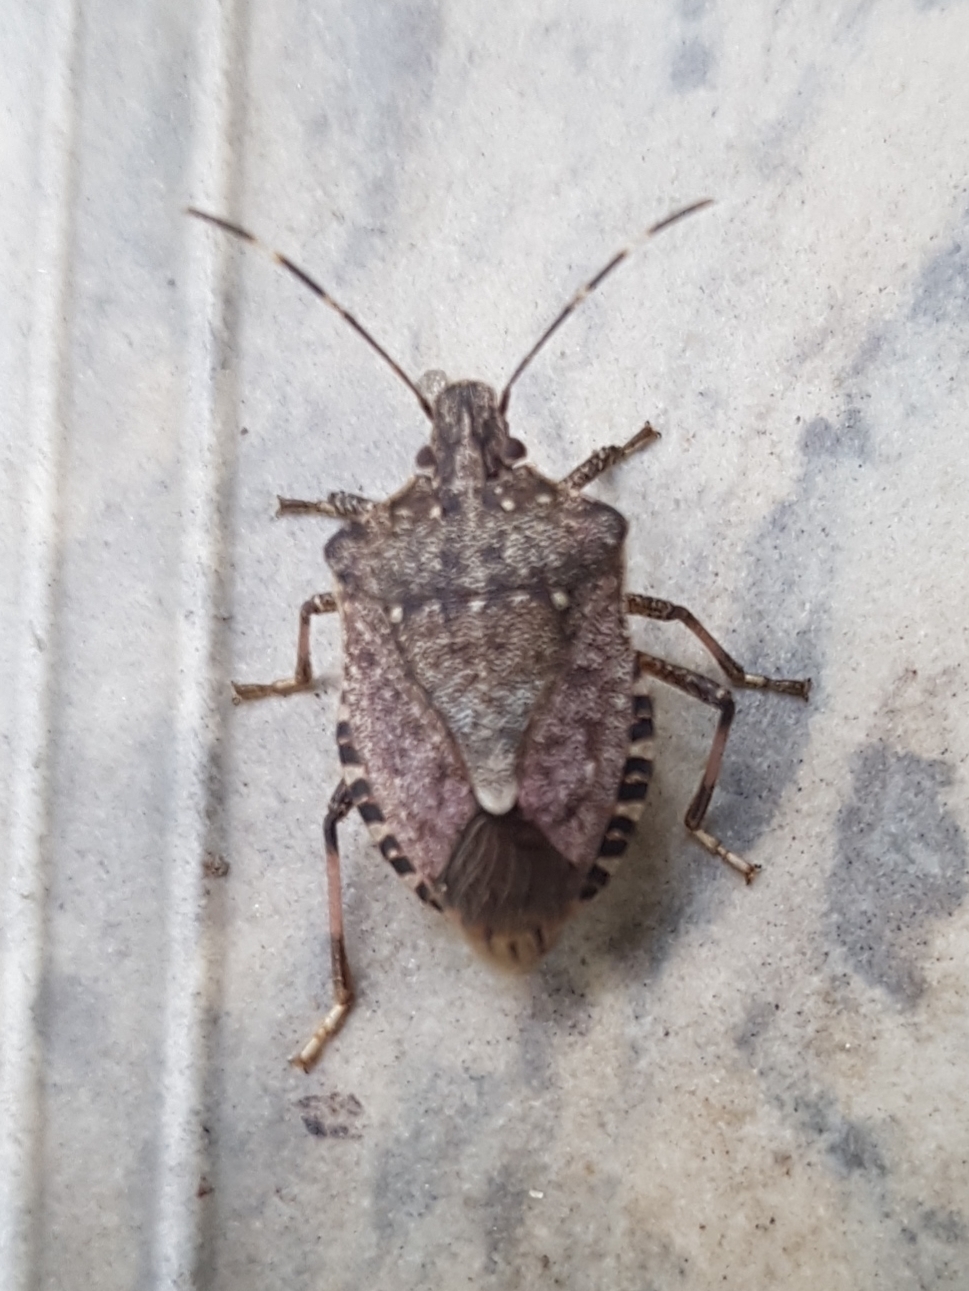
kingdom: Animalia
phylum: Arthropoda
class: Insecta
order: Hemiptera
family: Pentatomidae
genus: Halyomorpha
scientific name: Halyomorpha halys
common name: Brown marmorated stink bug
